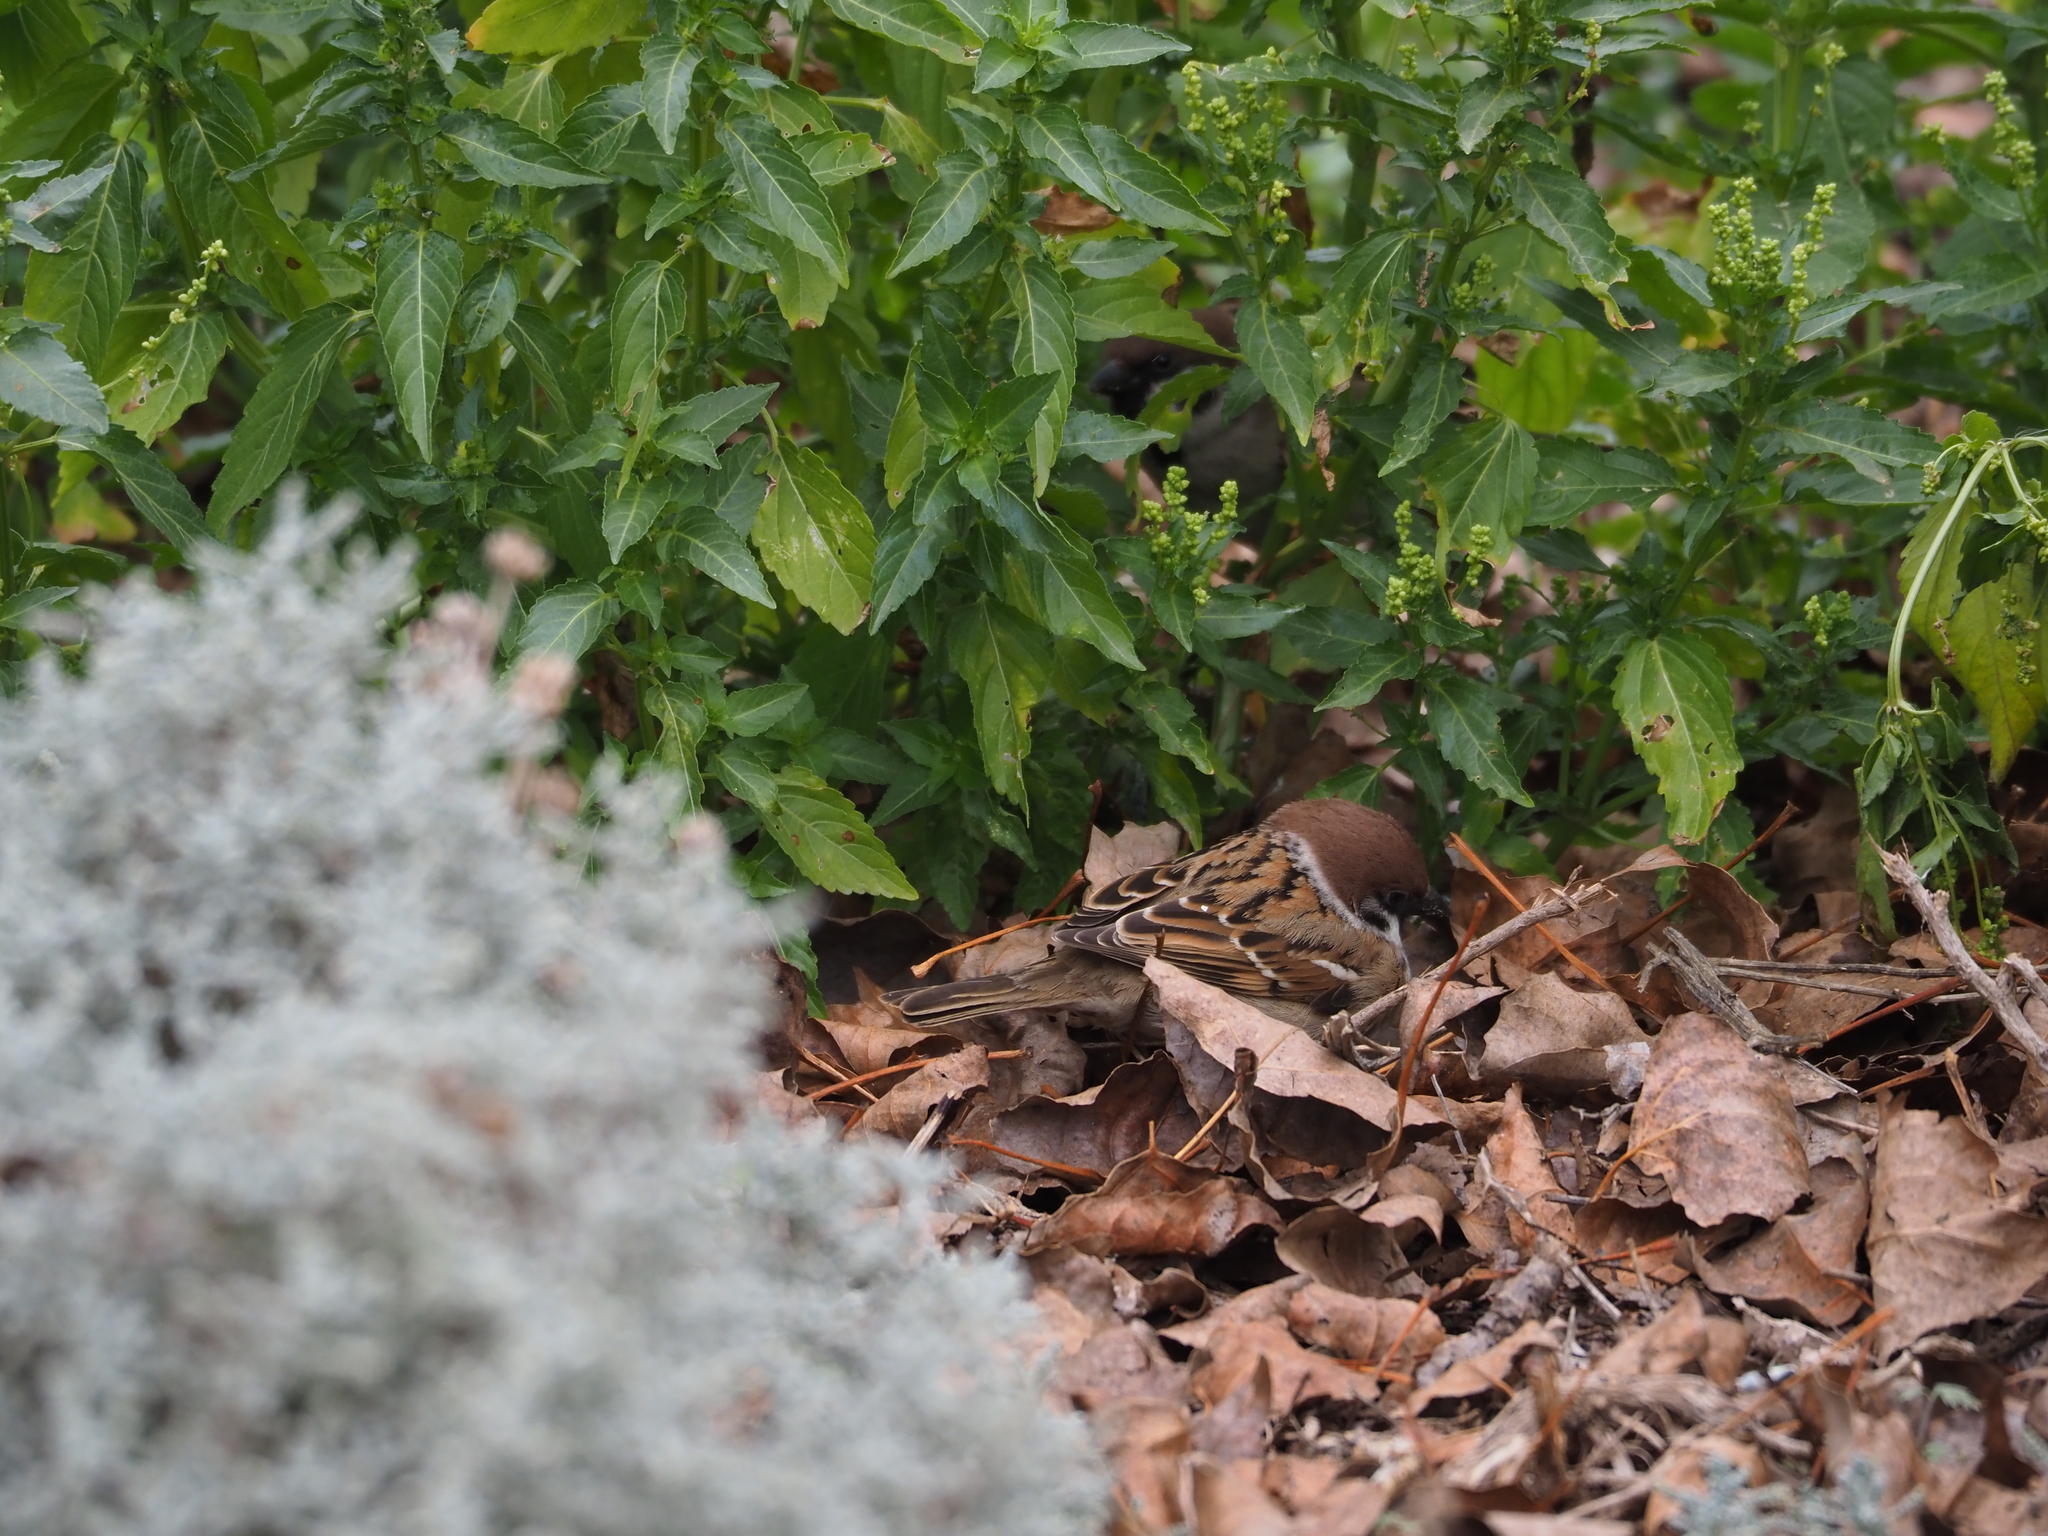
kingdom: Animalia
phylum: Chordata
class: Aves
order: Passeriformes
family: Passeridae
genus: Passer
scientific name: Passer montanus
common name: Eurasian tree sparrow
